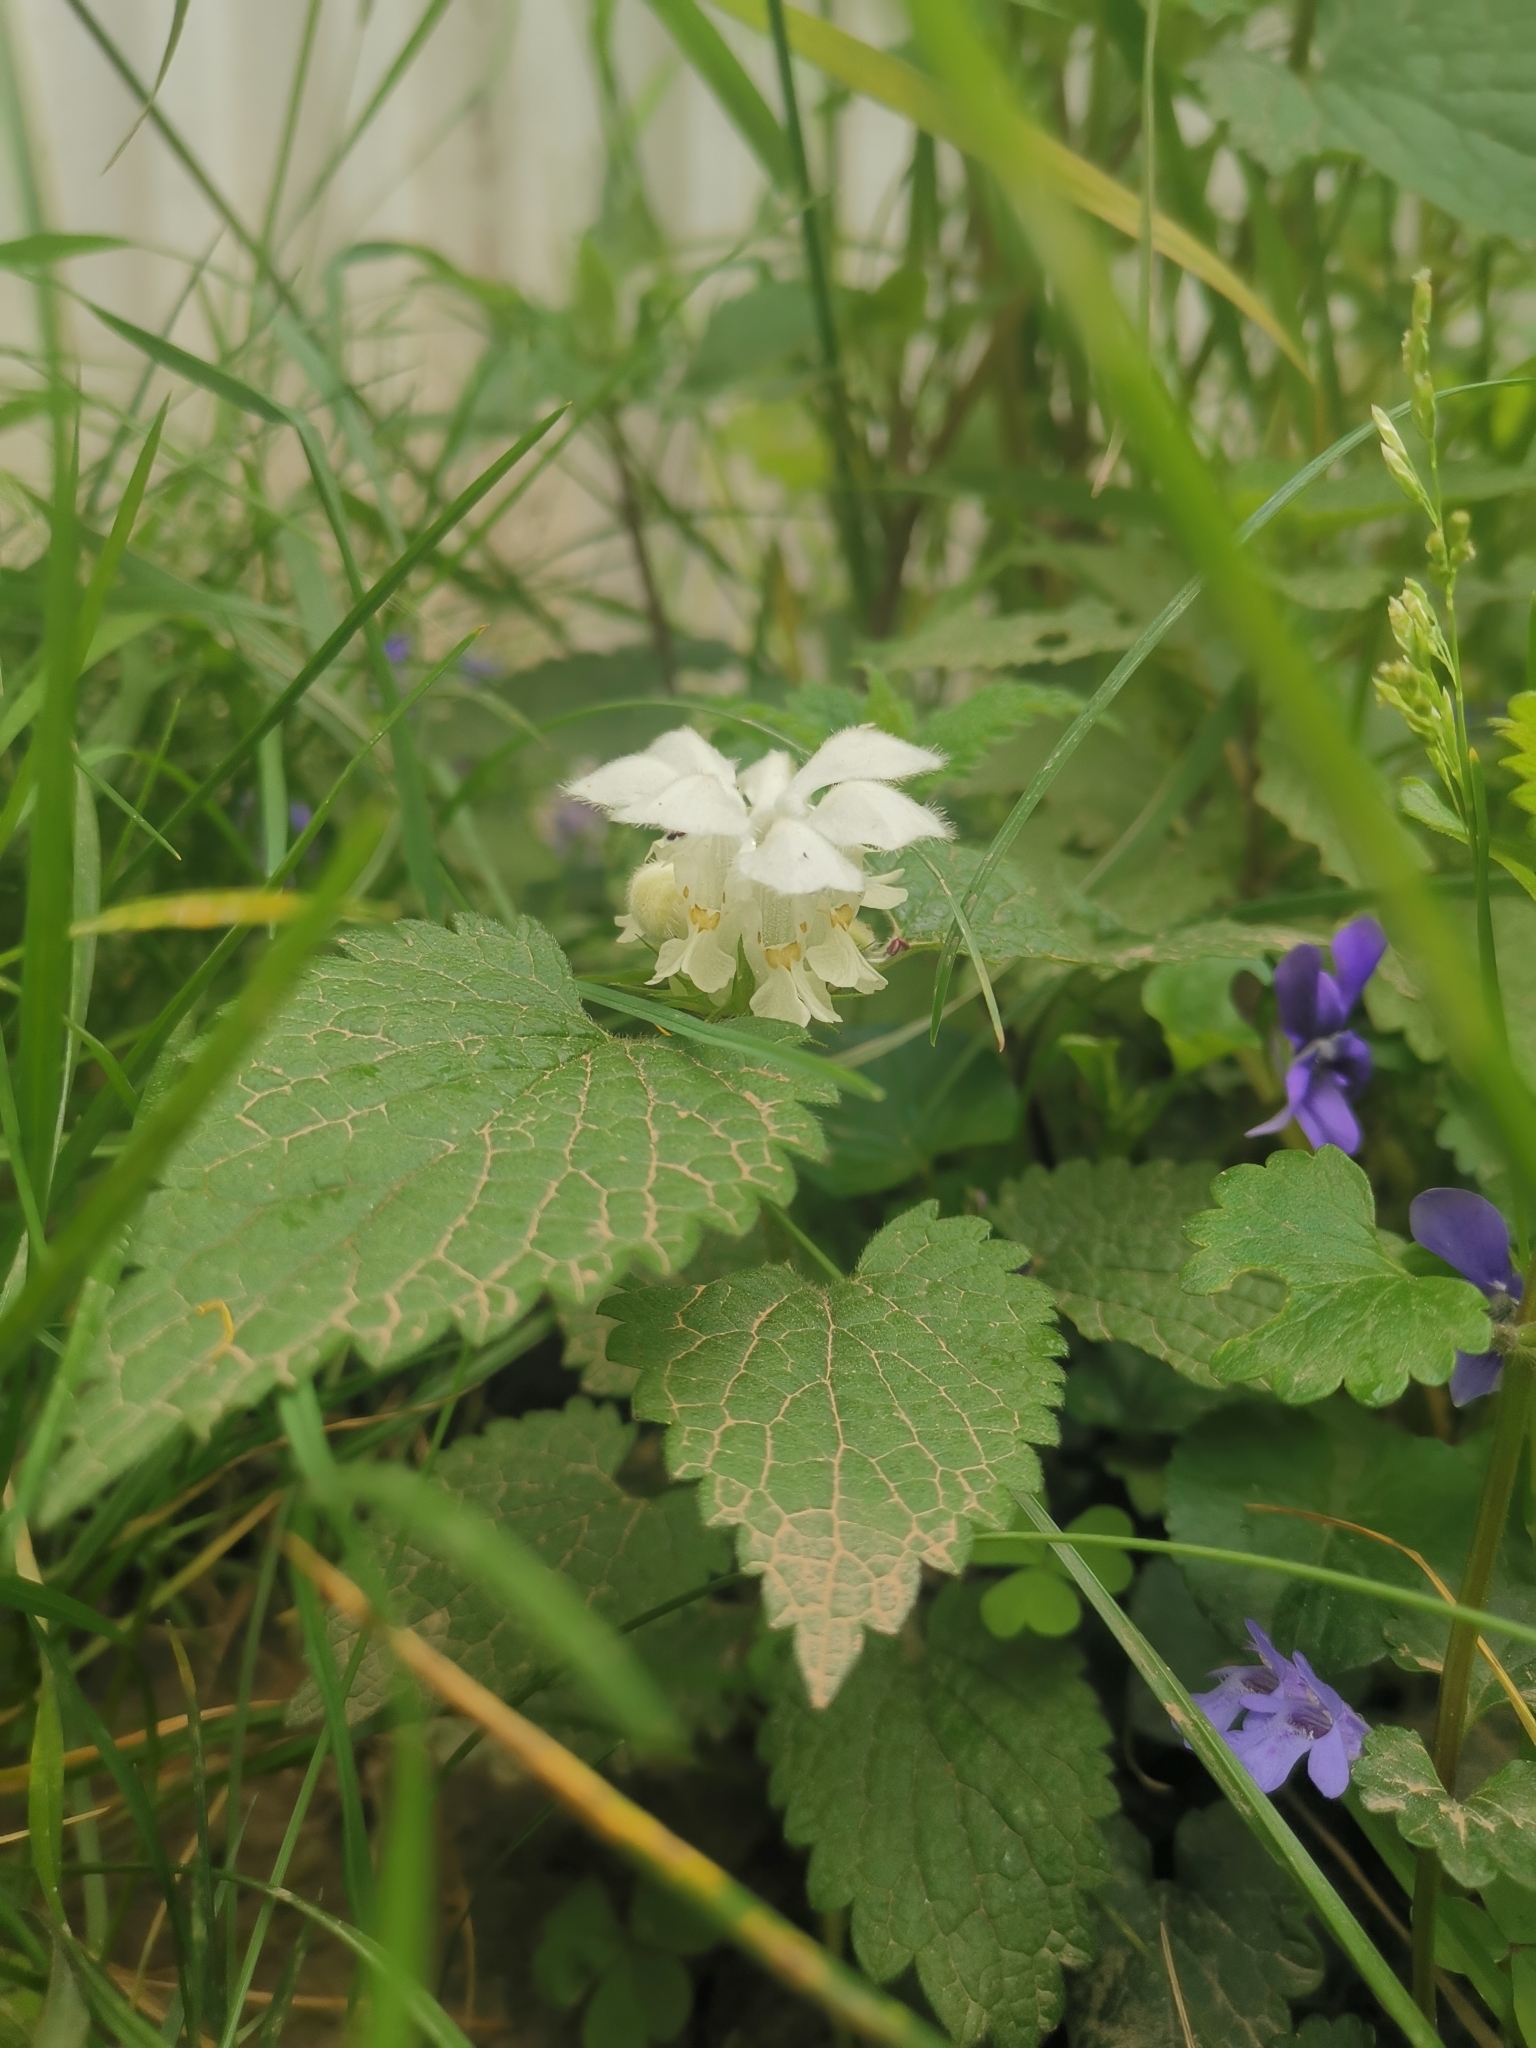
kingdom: Plantae
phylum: Tracheophyta
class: Magnoliopsida
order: Lamiales
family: Lamiaceae
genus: Lamium
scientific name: Lamium album
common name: White dead-nettle
